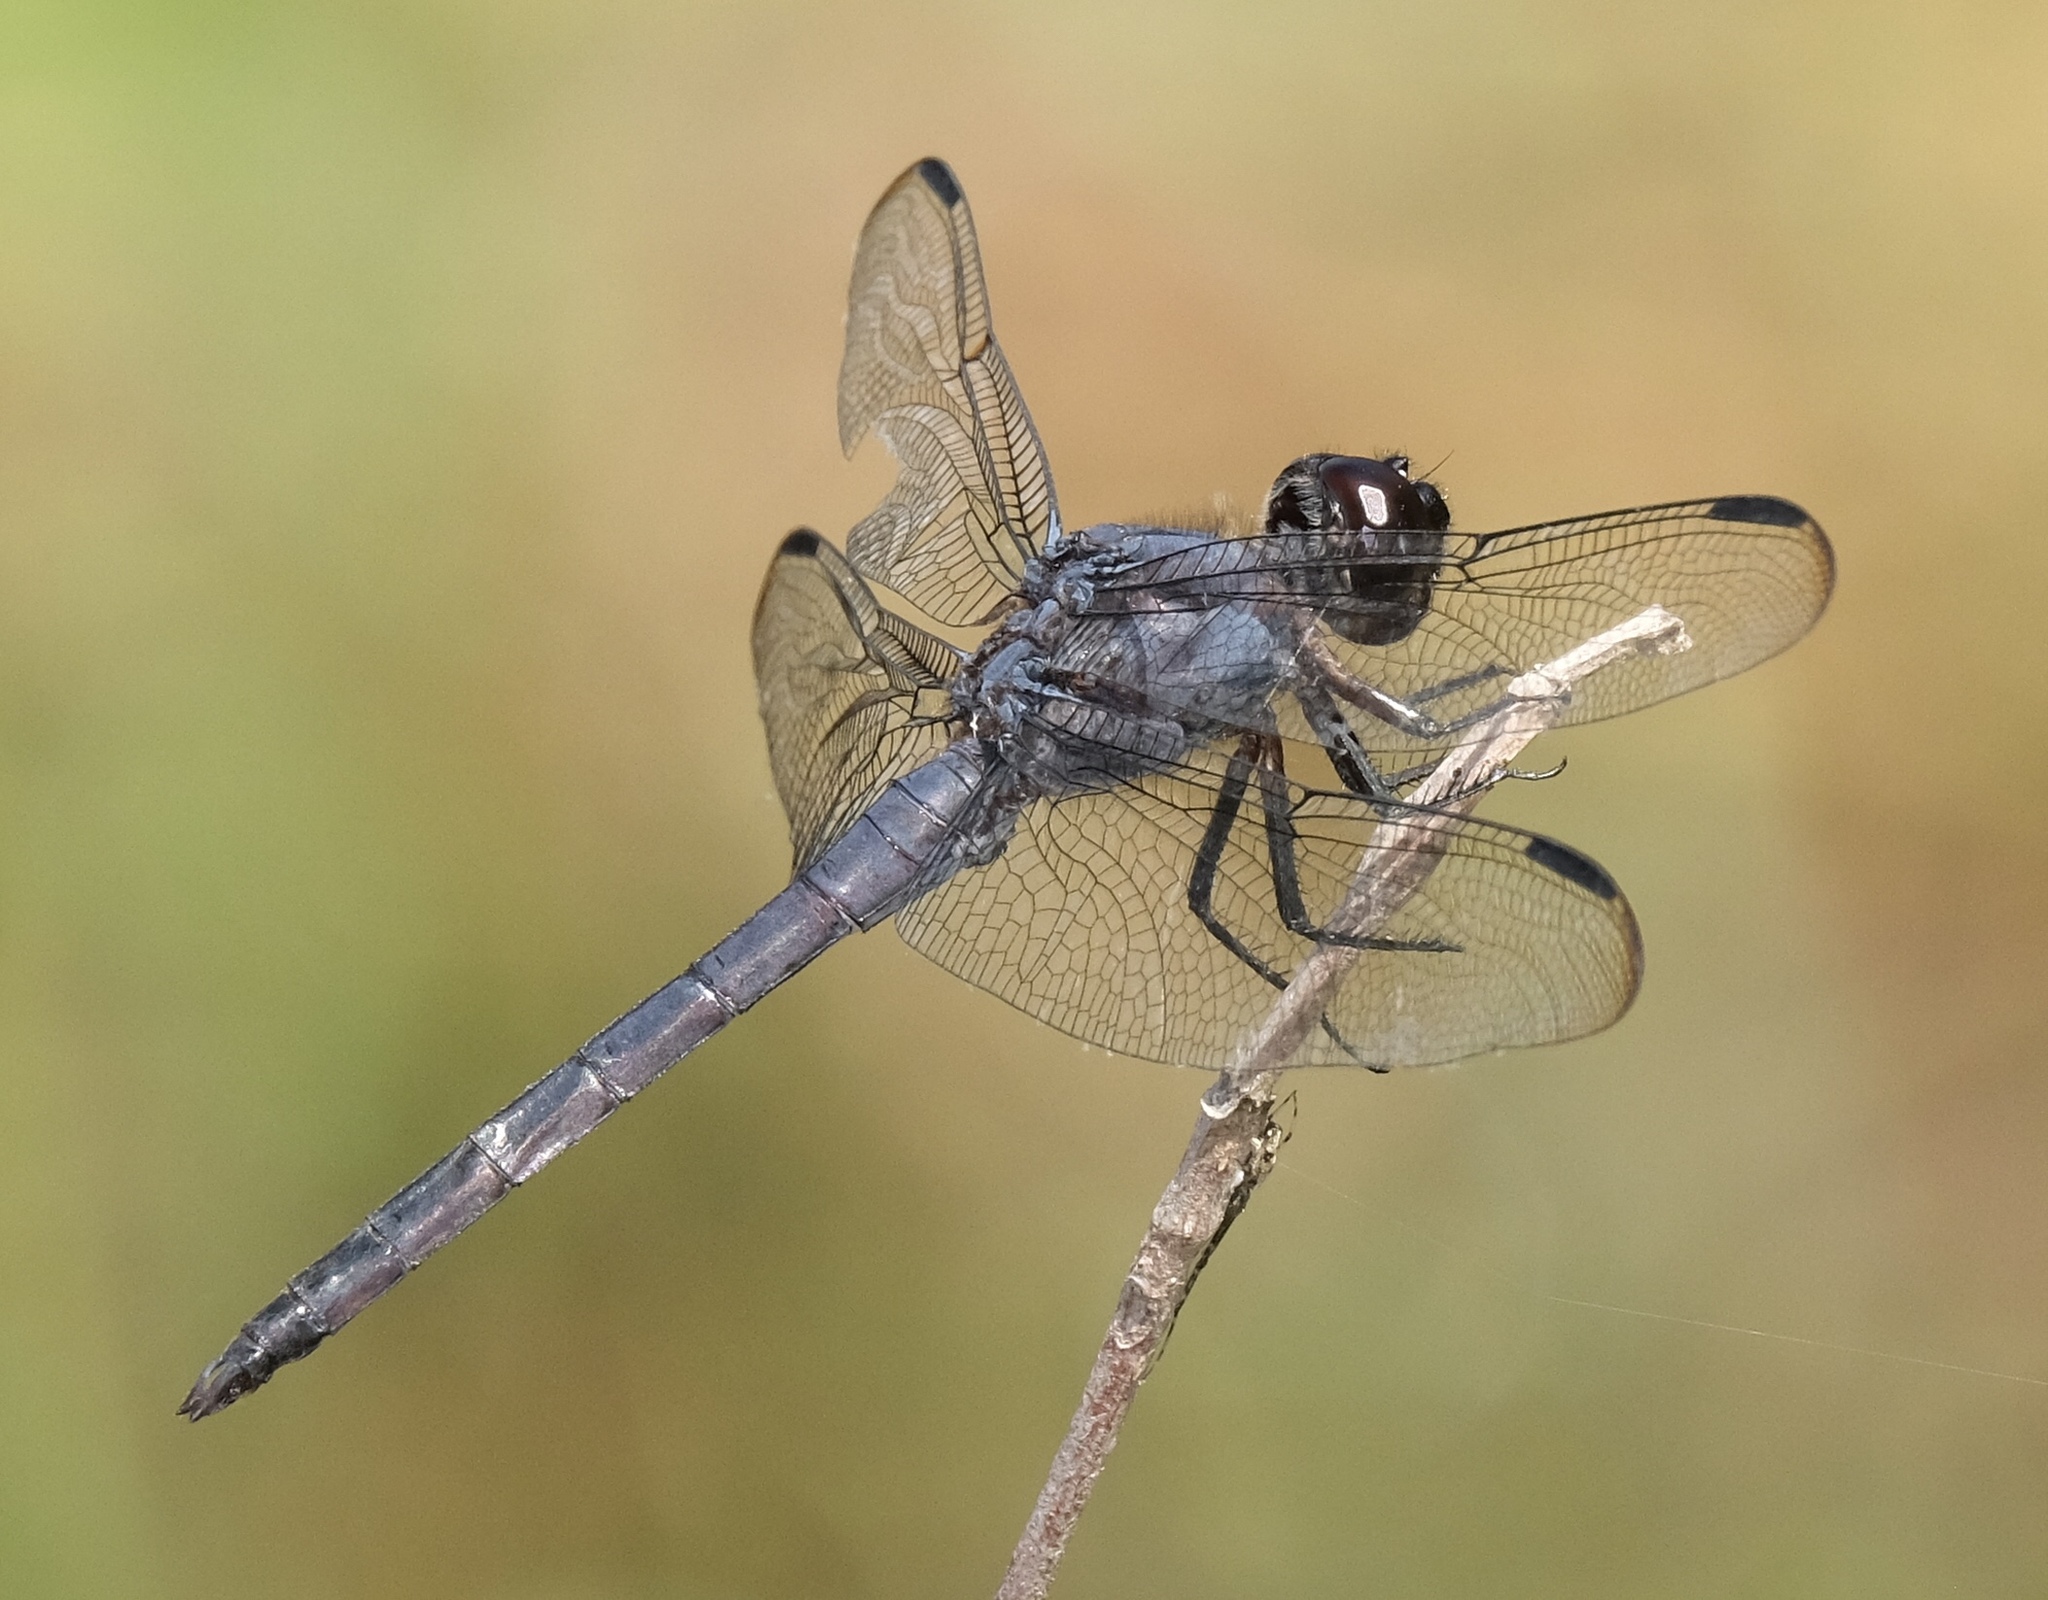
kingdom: Animalia
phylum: Arthropoda
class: Insecta
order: Odonata
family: Libellulidae
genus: Libellula
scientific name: Libellula incesta
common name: Slaty skimmer
